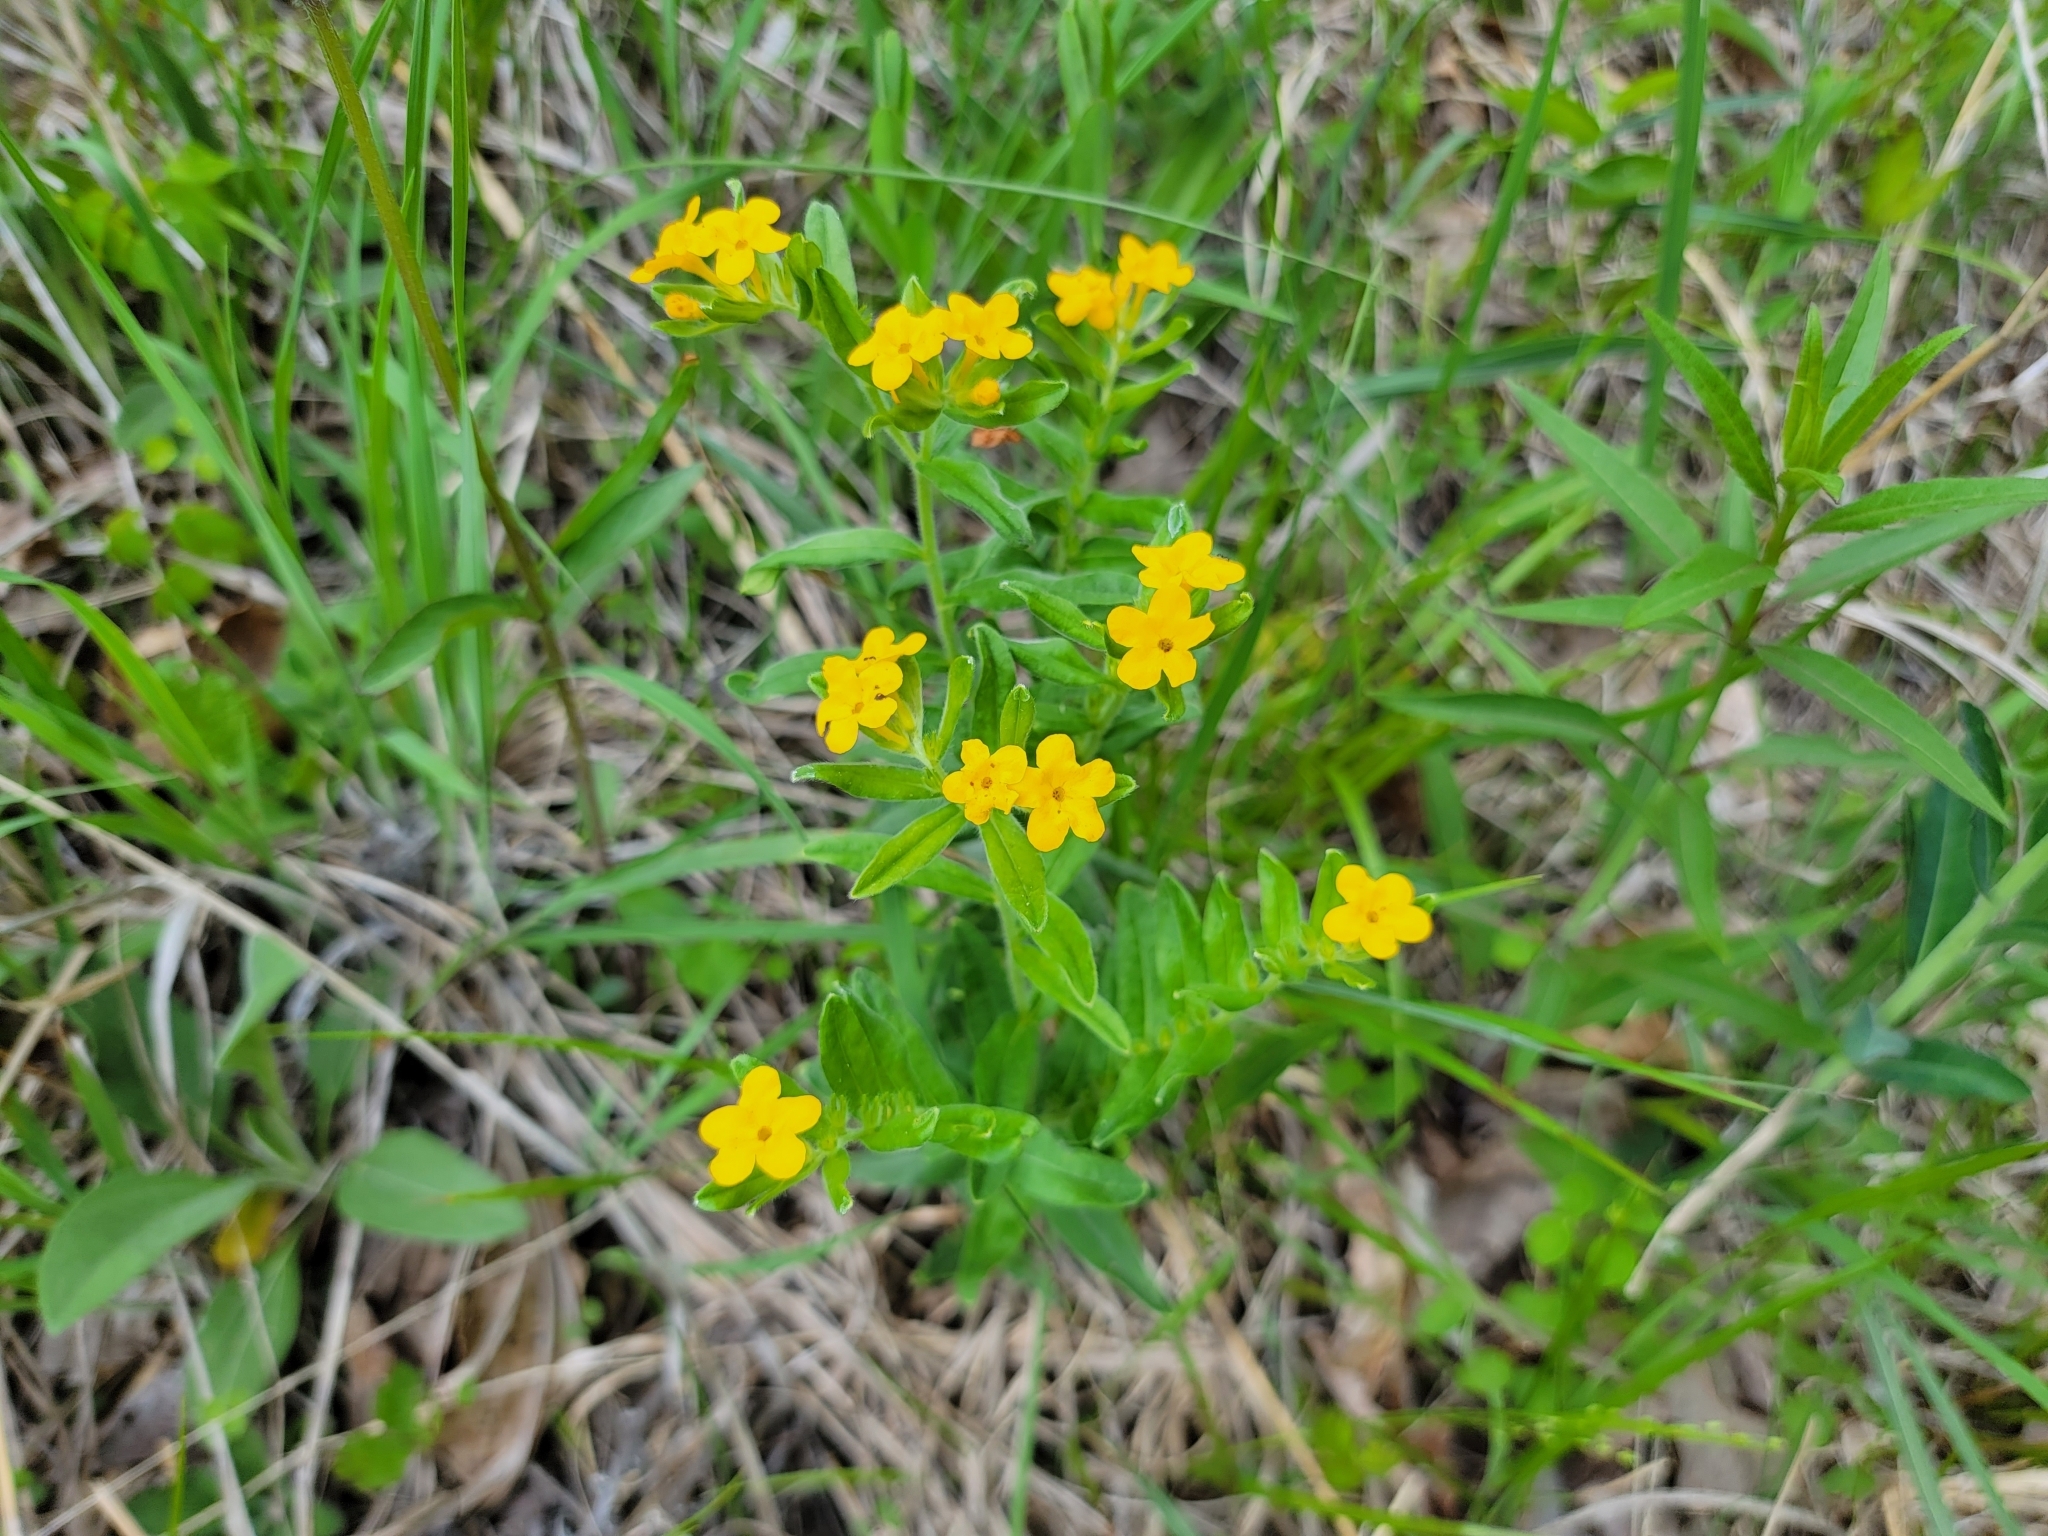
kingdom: Plantae
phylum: Tracheophyta
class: Magnoliopsida
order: Boraginales
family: Boraginaceae
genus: Lithospermum
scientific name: Lithospermum canescens
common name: Hoary puccoon
